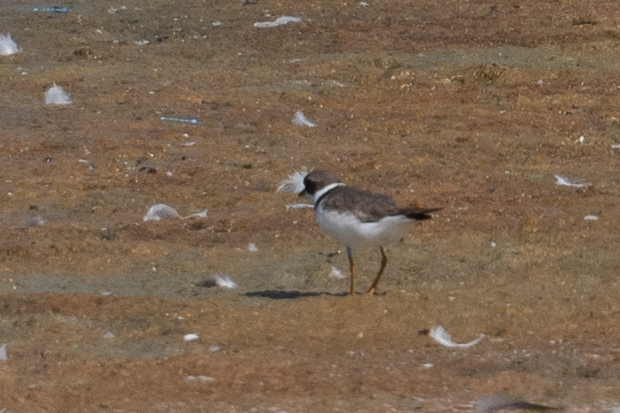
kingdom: Animalia
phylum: Chordata
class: Aves
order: Charadriiformes
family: Charadriidae
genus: Charadrius
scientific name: Charadrius semipalmatus
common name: Semipalmated plover
